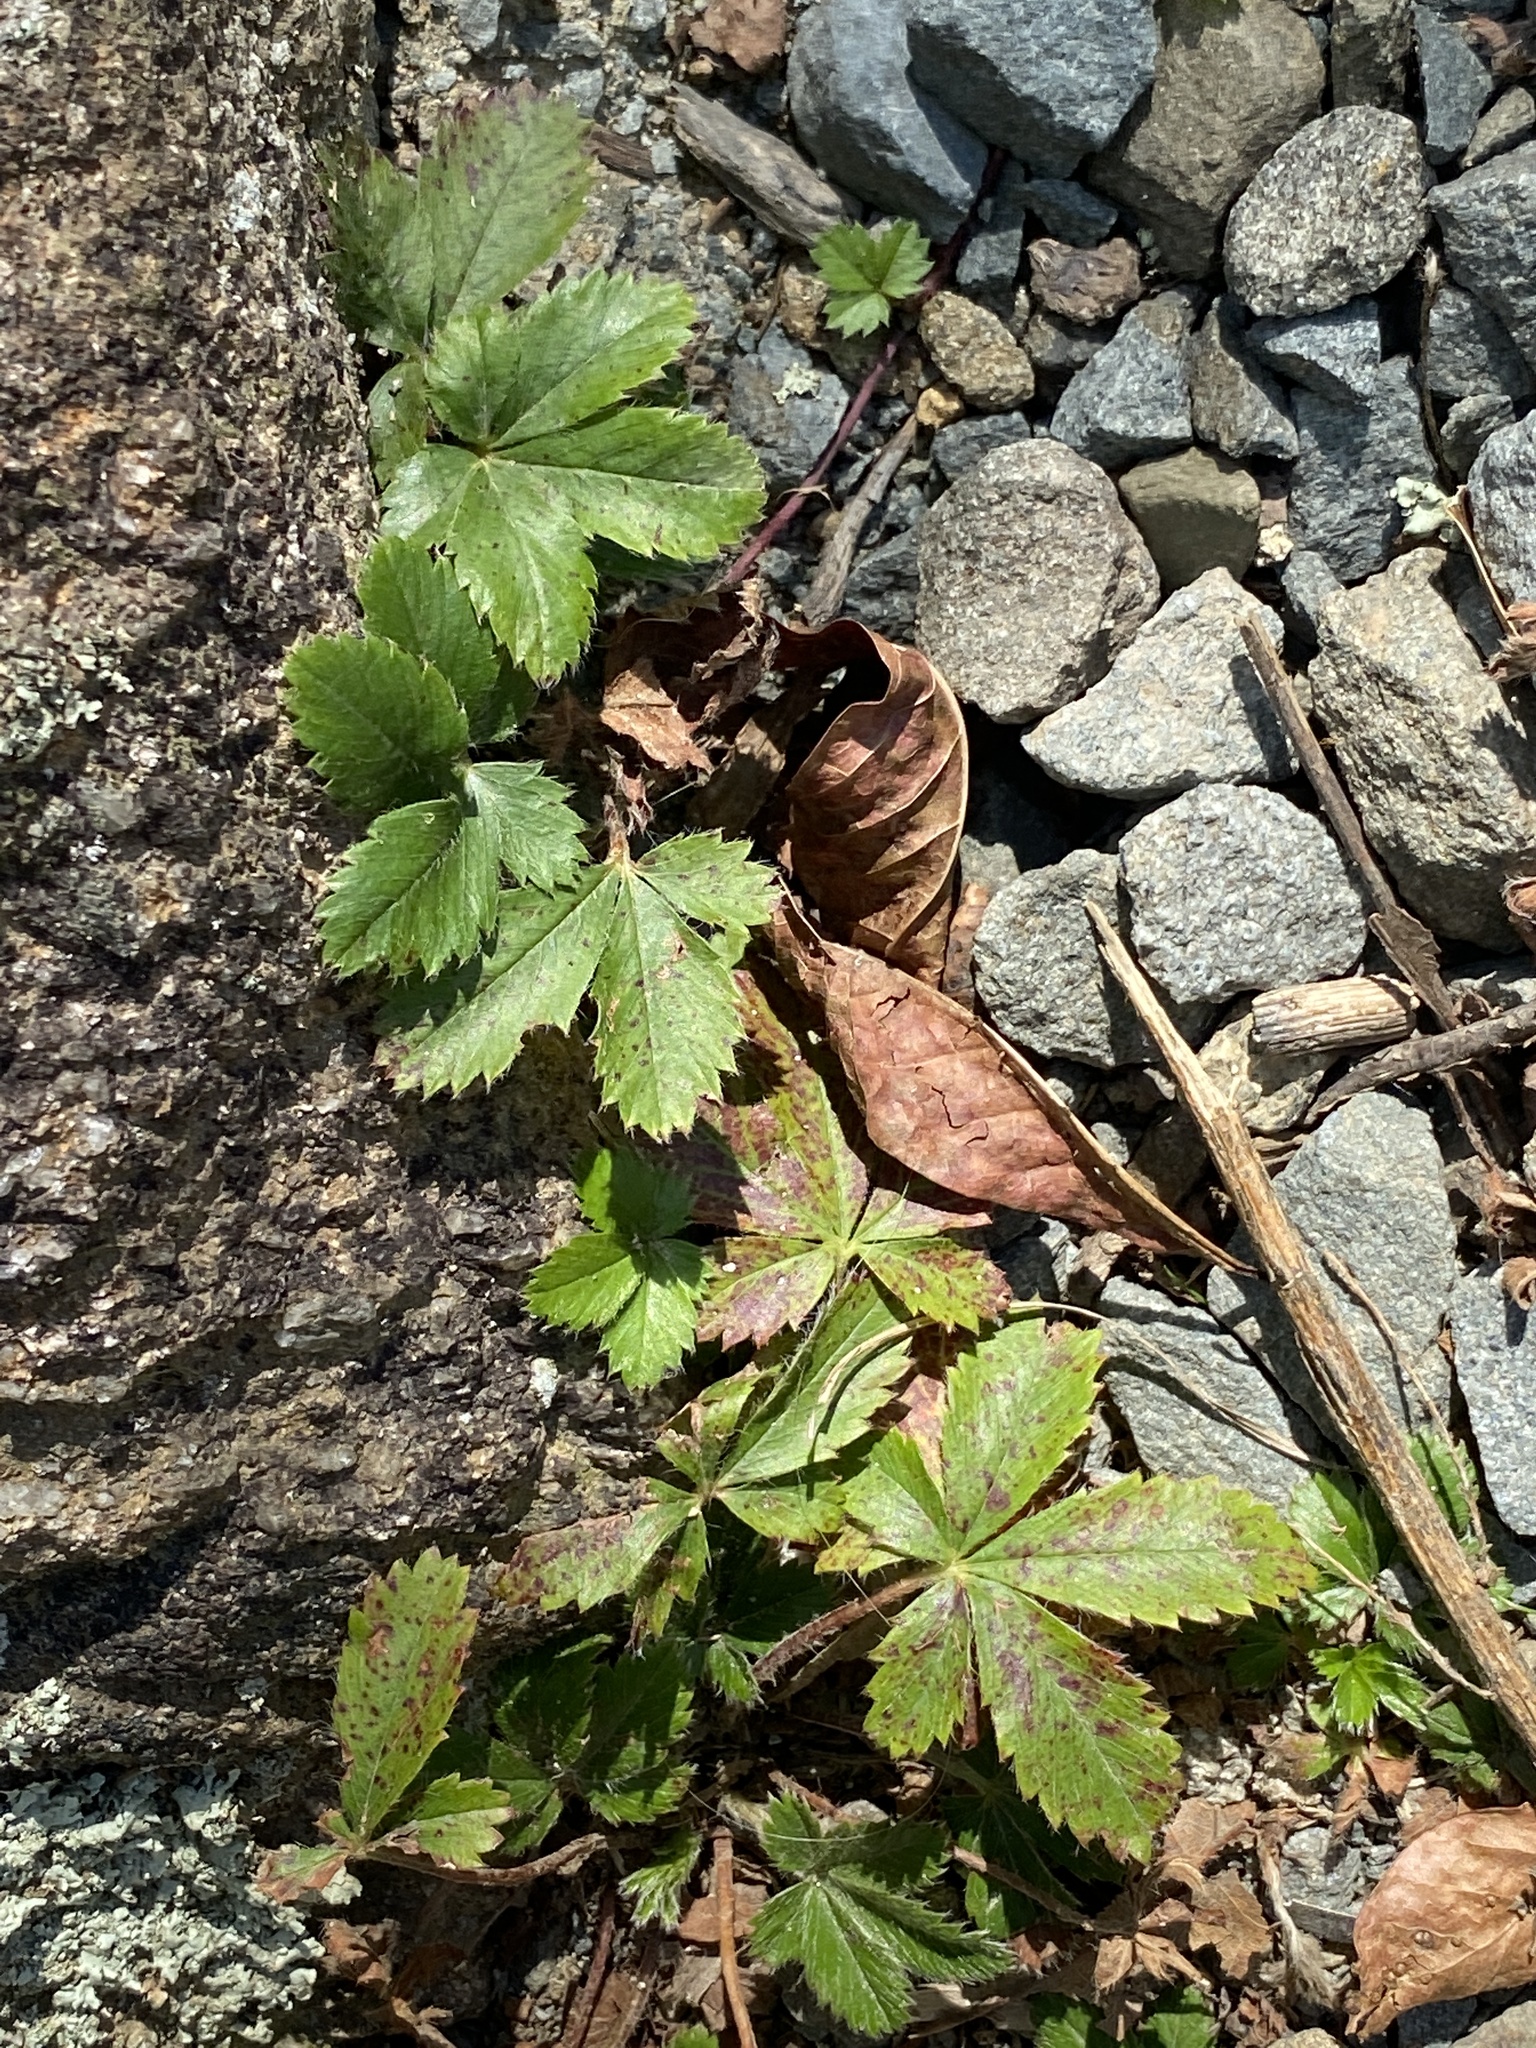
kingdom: Plantae
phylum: Tracheophyta
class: Magnoliopsida
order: Rosales
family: Rosaceae
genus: Potentilla
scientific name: Potentilla canadensis
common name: Canada cinquefoil
